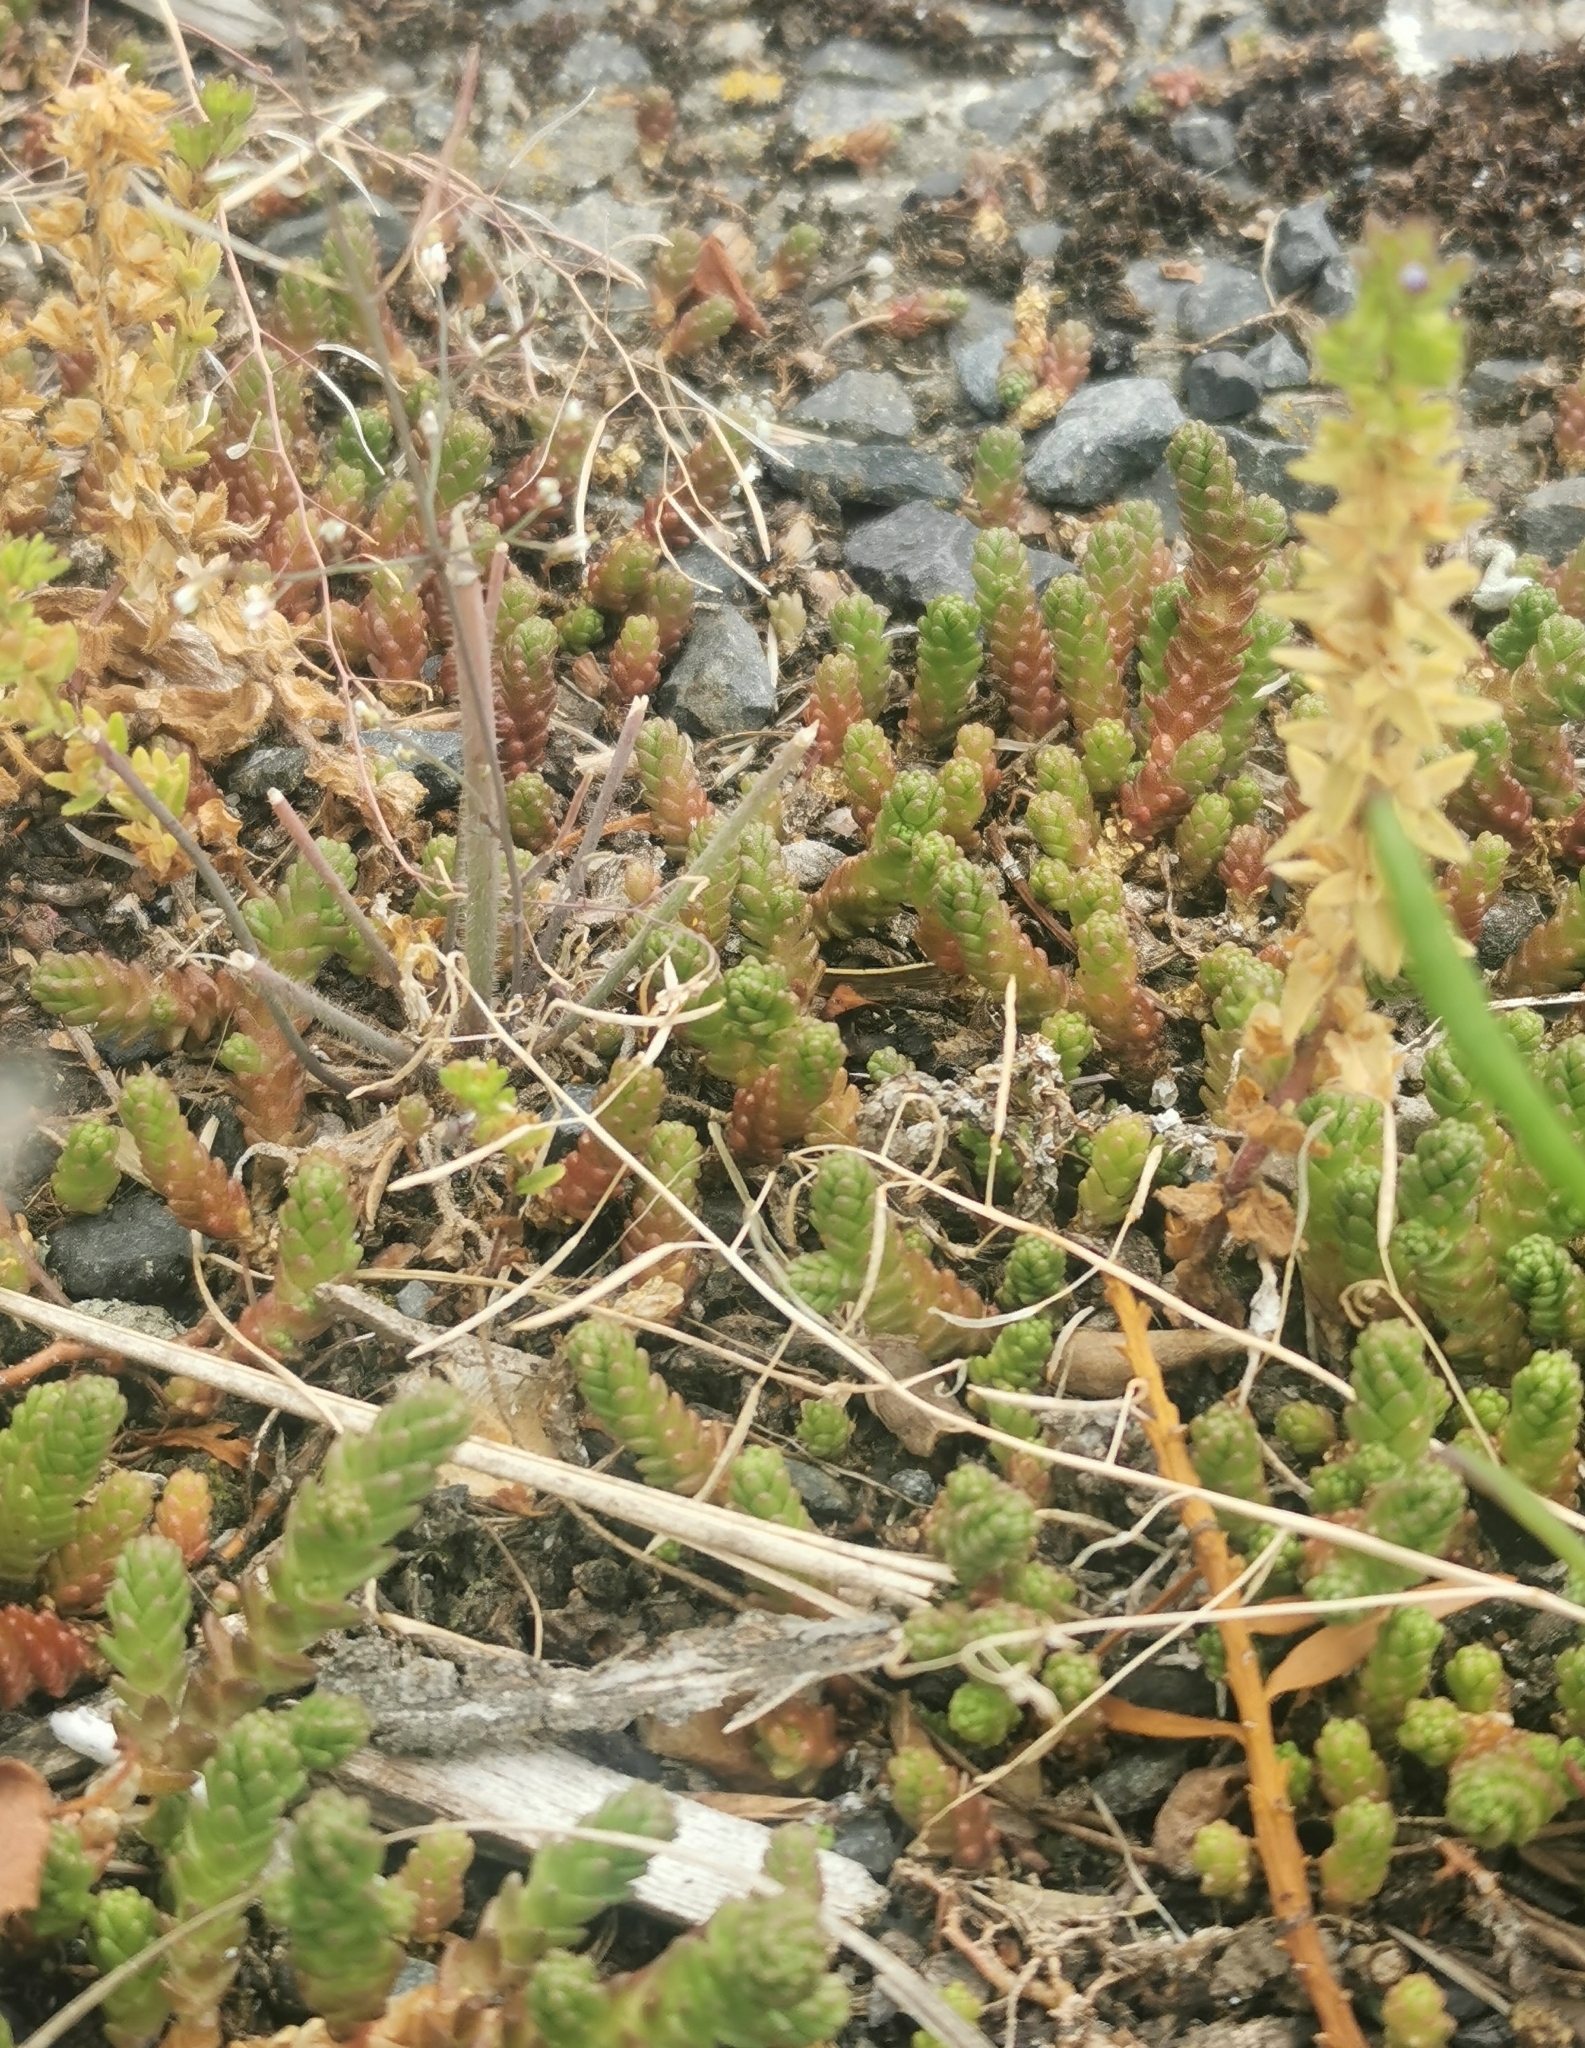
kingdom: Plantae
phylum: Tracheophyta
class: Magnoliopsida
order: Saxifragales
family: Crassulaceae
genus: Sedum
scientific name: Sedum acre
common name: Biting stonecrop
